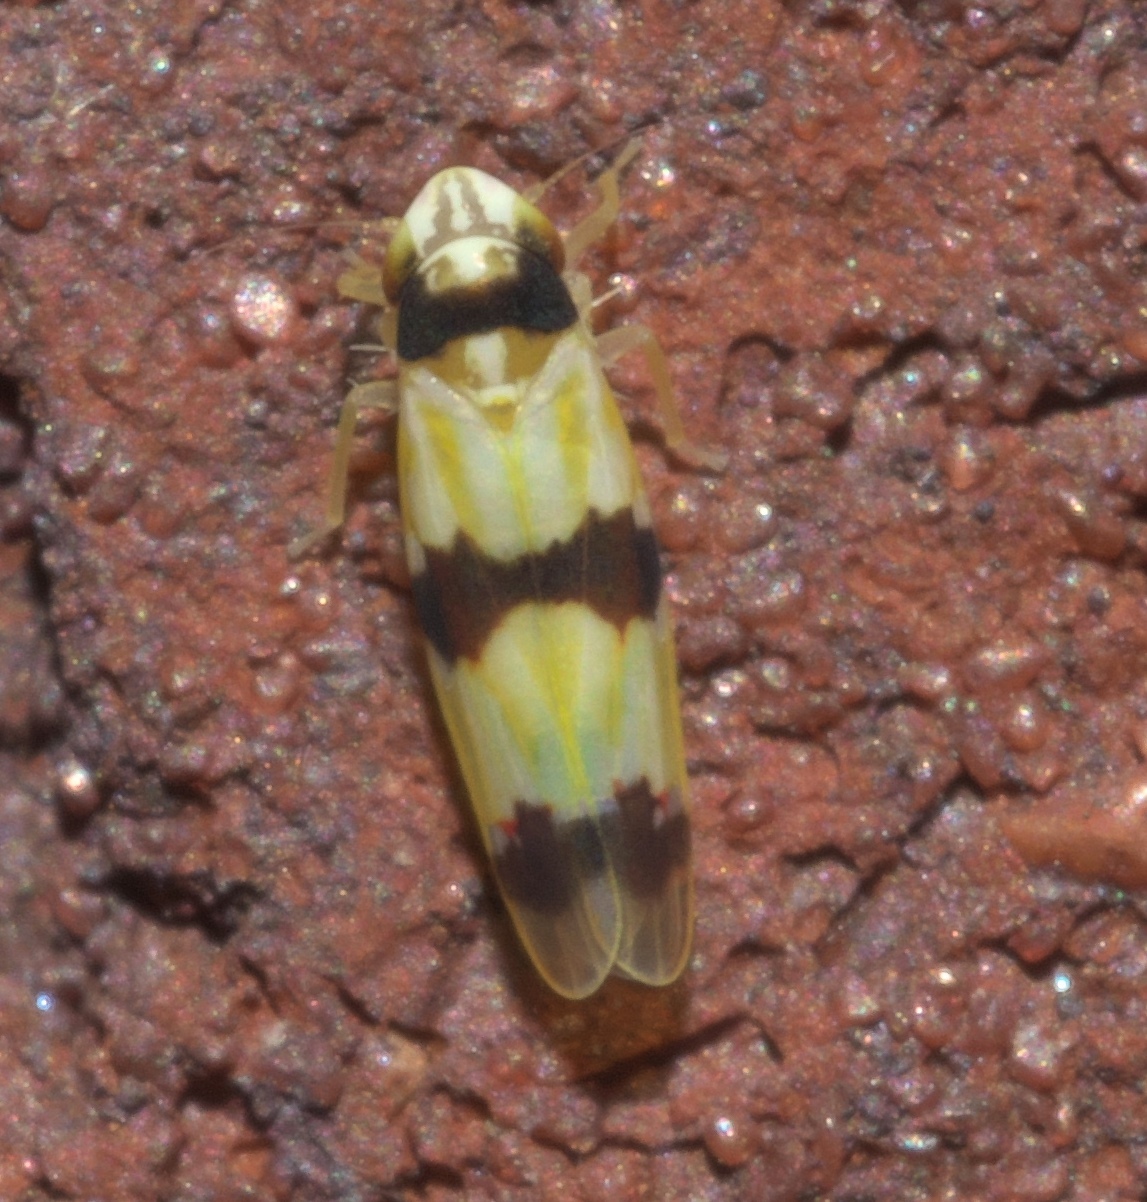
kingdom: Animalia
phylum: Arthropoda
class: Insecta
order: Hemiptera
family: Cicadellidae
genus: Erythroneura
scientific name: Erythroneura cymbium
